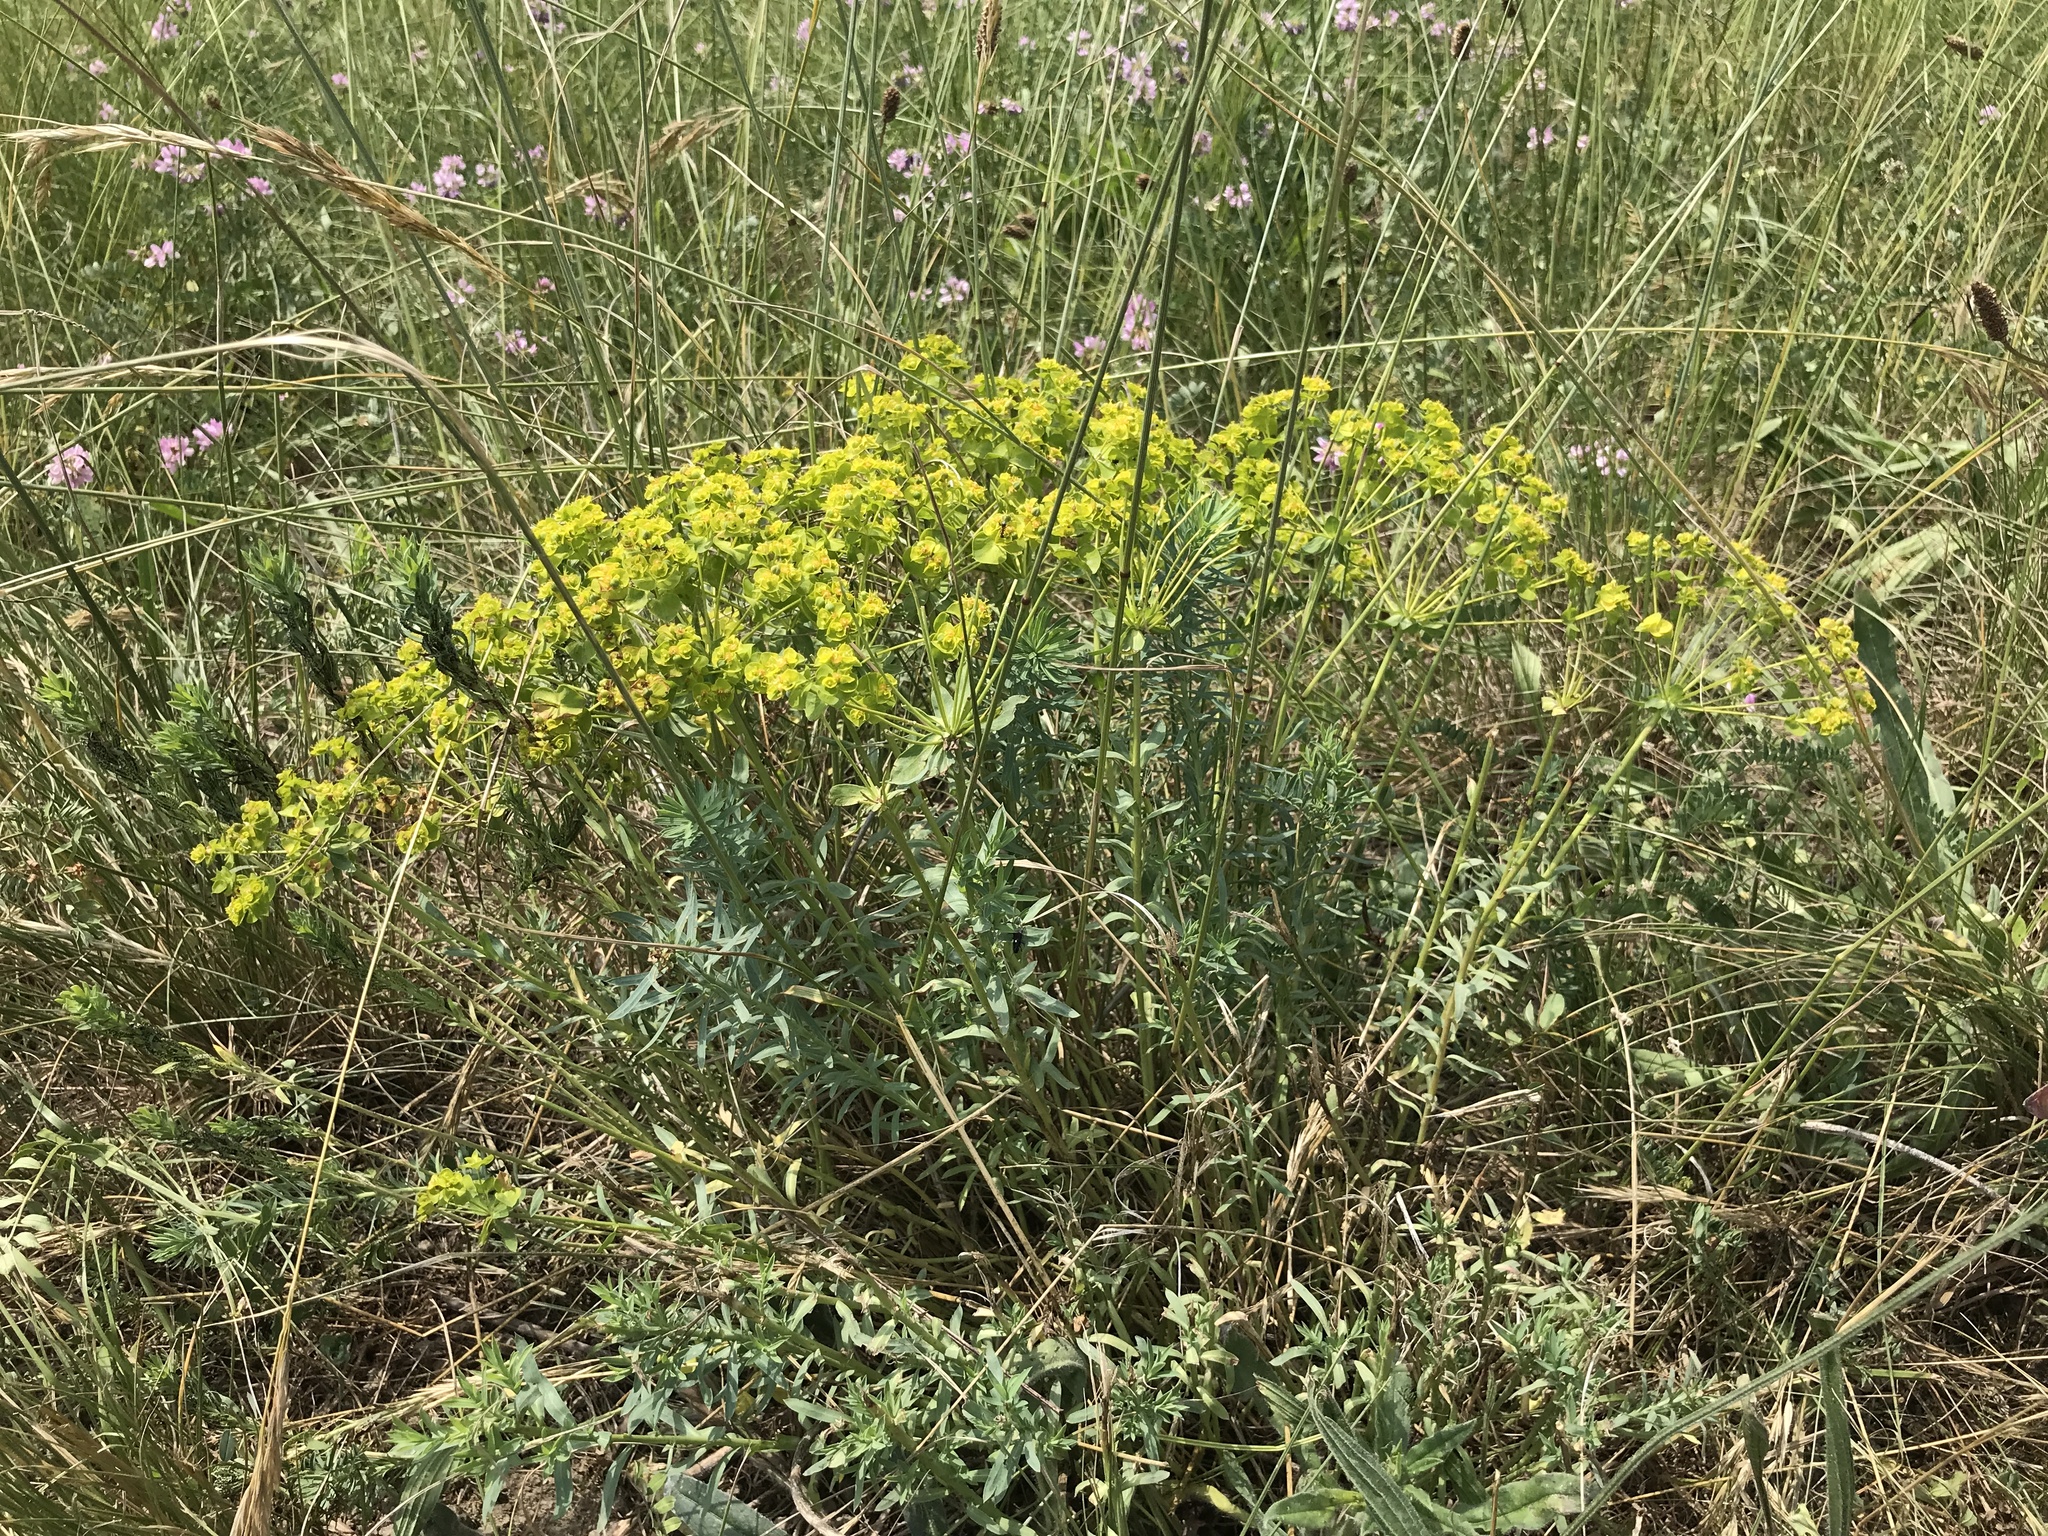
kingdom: Plantae
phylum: Tracheophyta
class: Magnoliopsida
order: Malpighiales
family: Euphorbiaceae
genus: Euphorbia
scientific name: Euphorbia seguieriana
